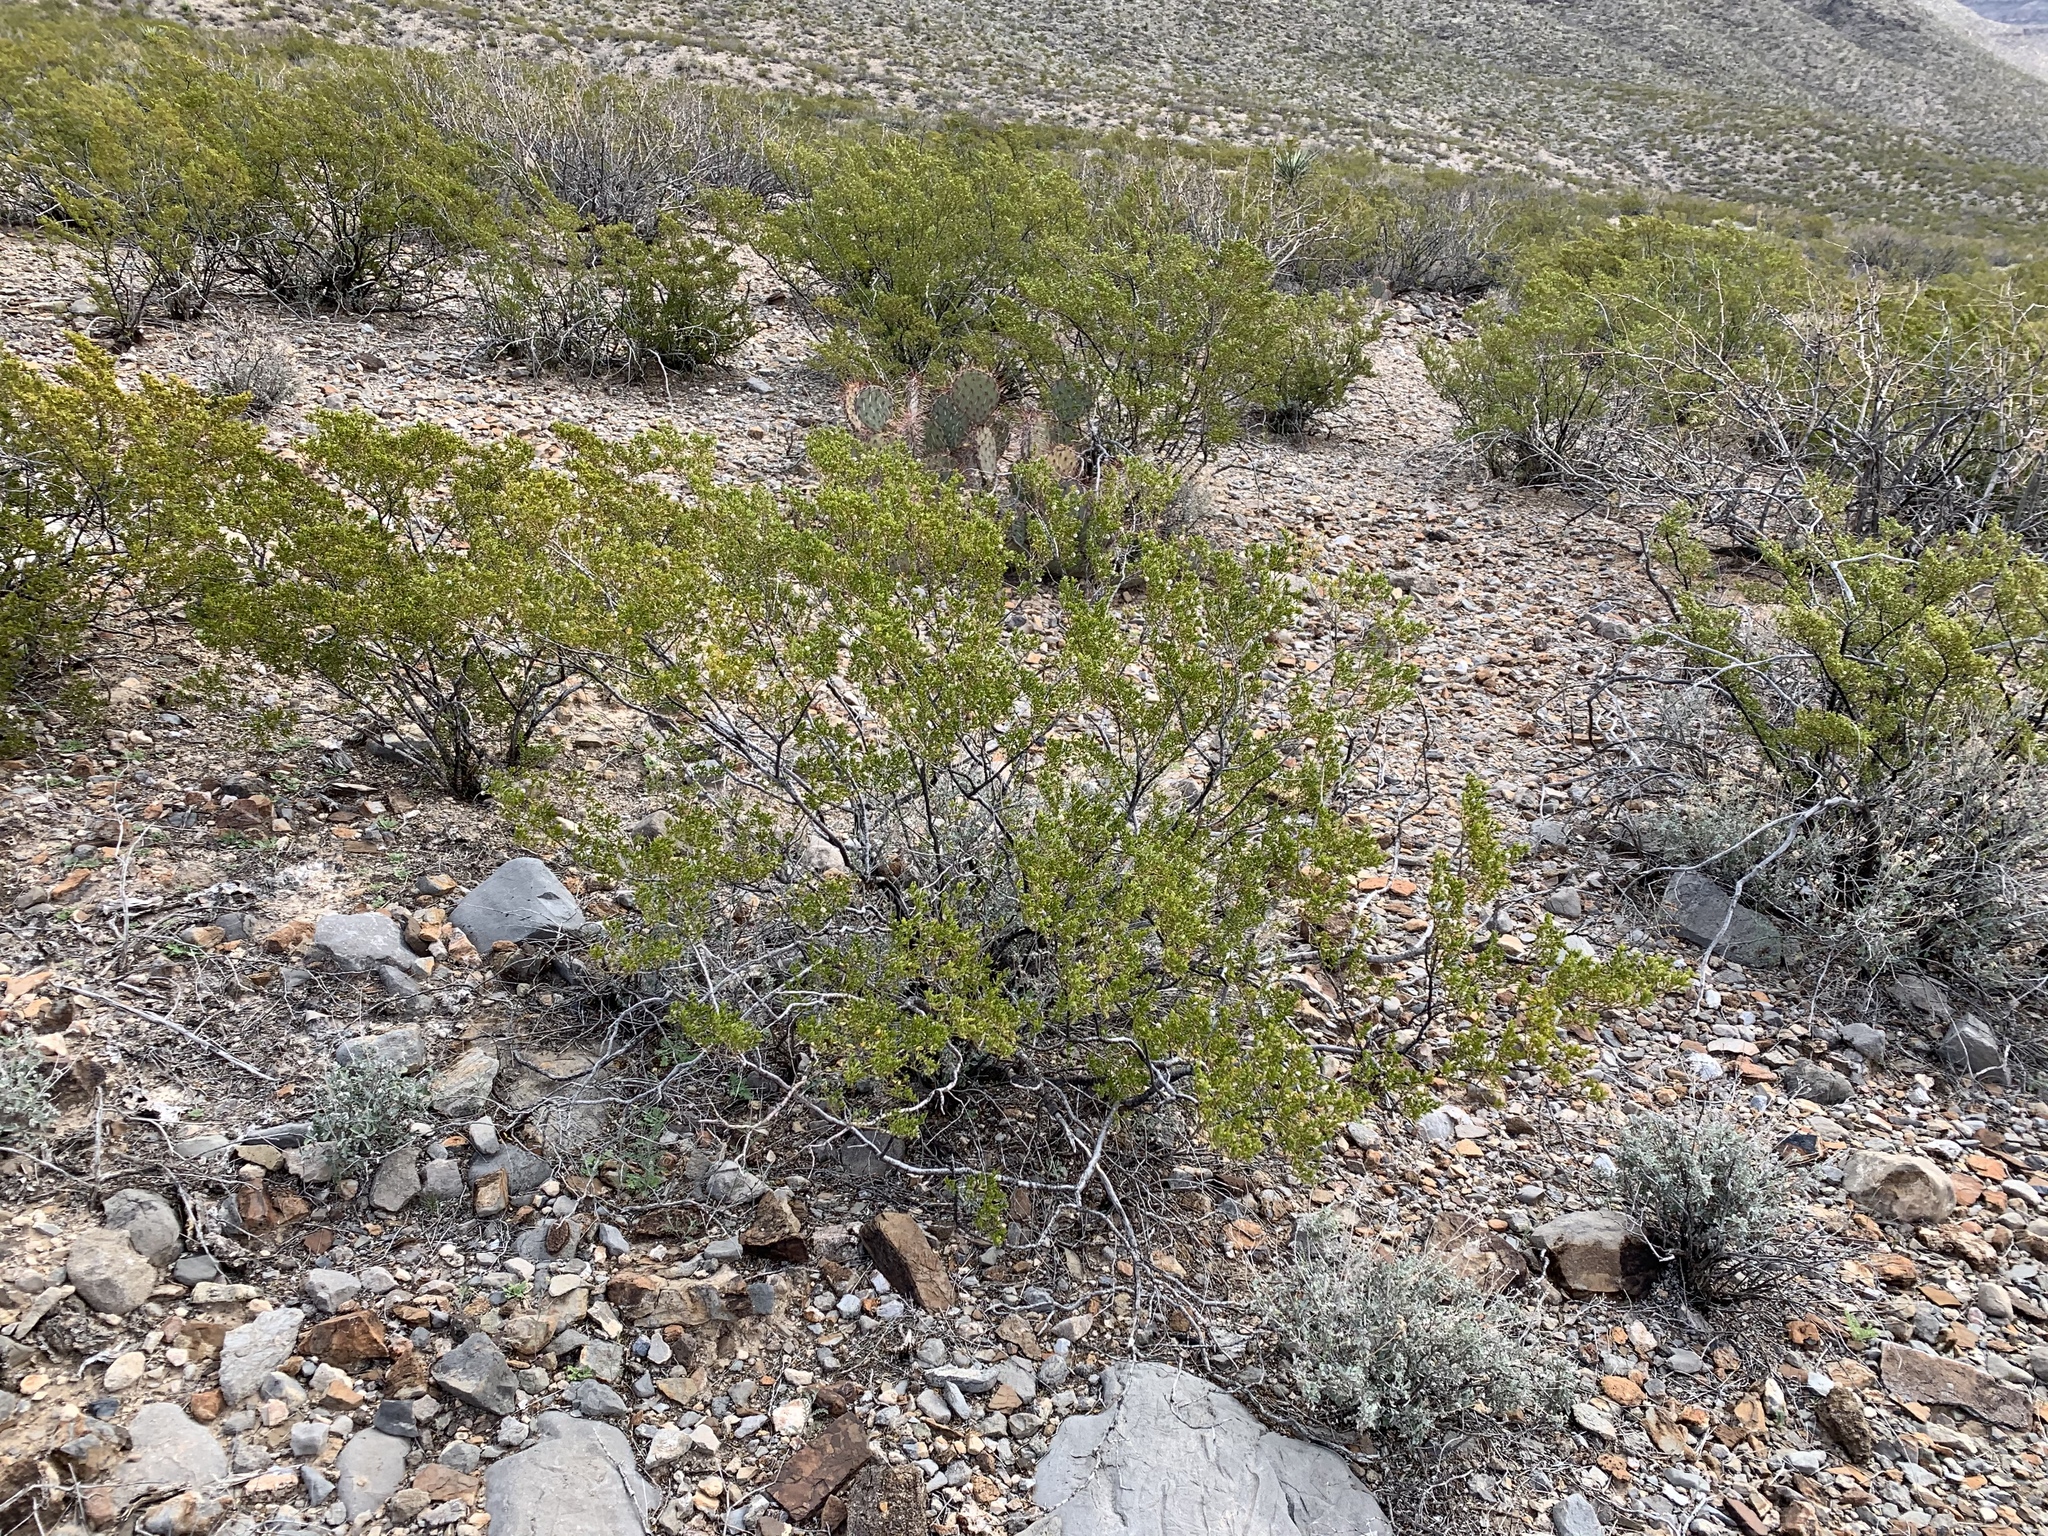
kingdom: Plantae
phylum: Tracheophyta
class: Magnoliopsida
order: Zygophyllales
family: Zygophyllaceae
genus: Larrea
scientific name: Larrea tridentata
